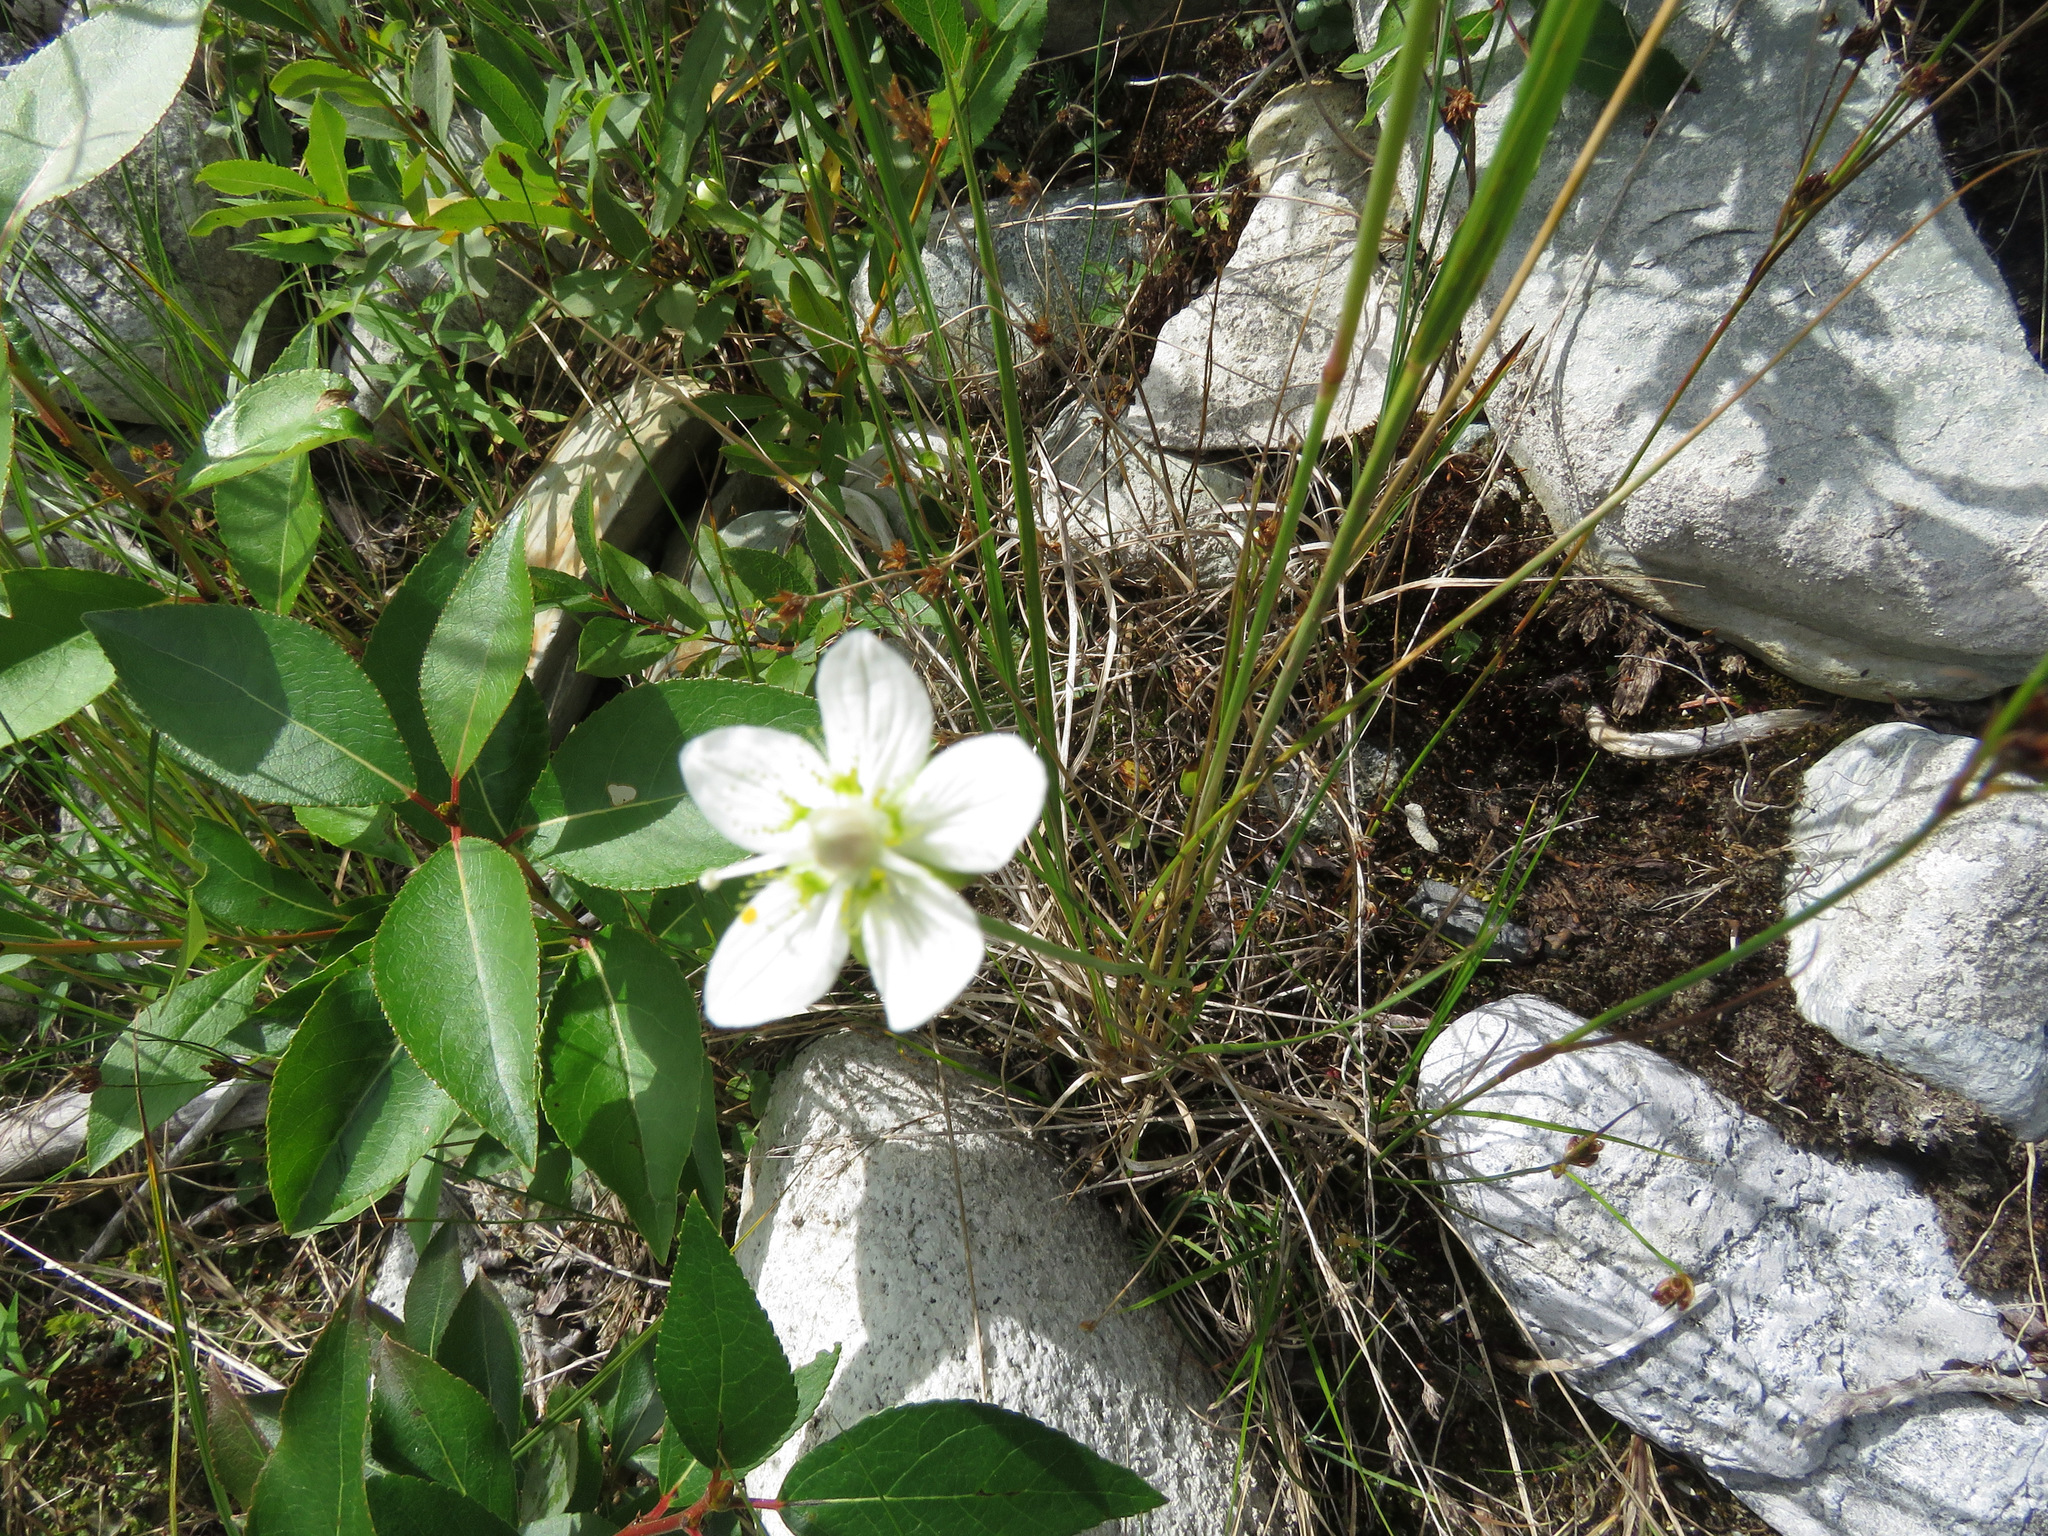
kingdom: Plantae
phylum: Tracheophyta
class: Magnoliopsida
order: Celastrales
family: Parnassiaceae
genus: Parnassia
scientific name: Parnassia palustris
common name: Grass-of-parnassus
